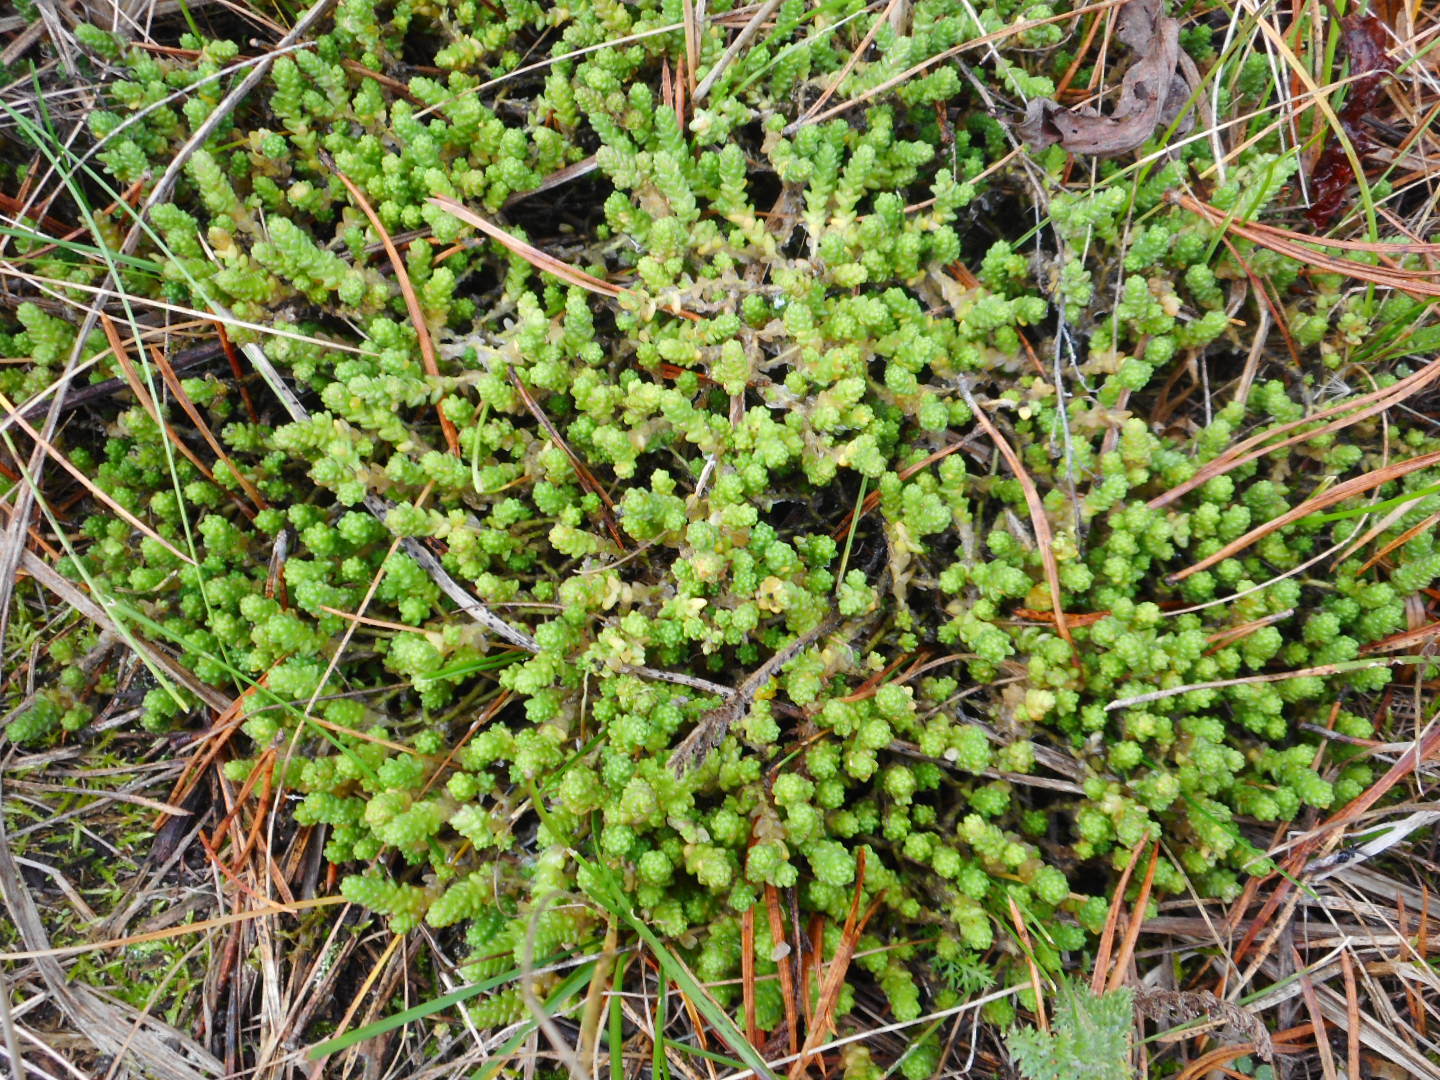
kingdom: Plantae
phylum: Tracheophyta
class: Magnoliopsida
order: Saxifragales
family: Crassulaceae
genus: Sedum
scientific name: Sedum acre
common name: Biting stonecrop
